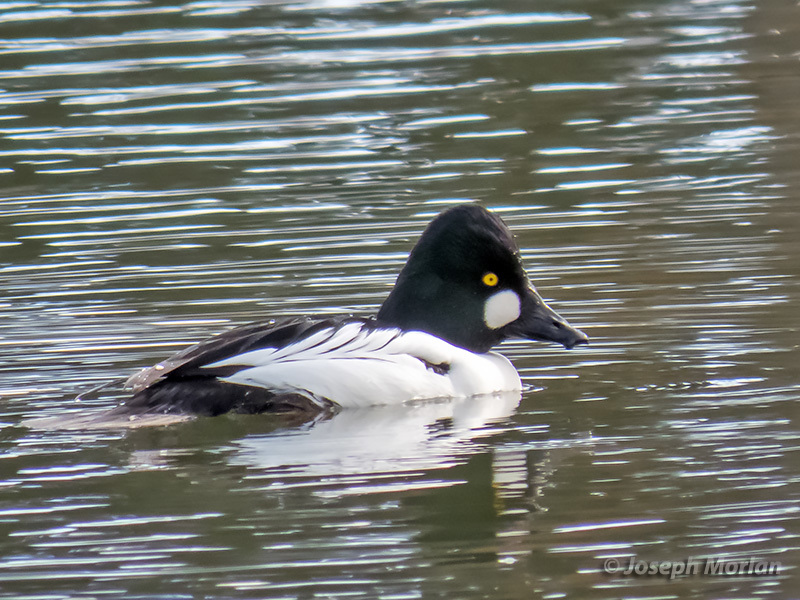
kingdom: Animalia
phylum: Chordata
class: Aves
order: Anseriformes
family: Anatidae
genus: Bucephala
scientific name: Bucephala clangula
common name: Common goldeneye
